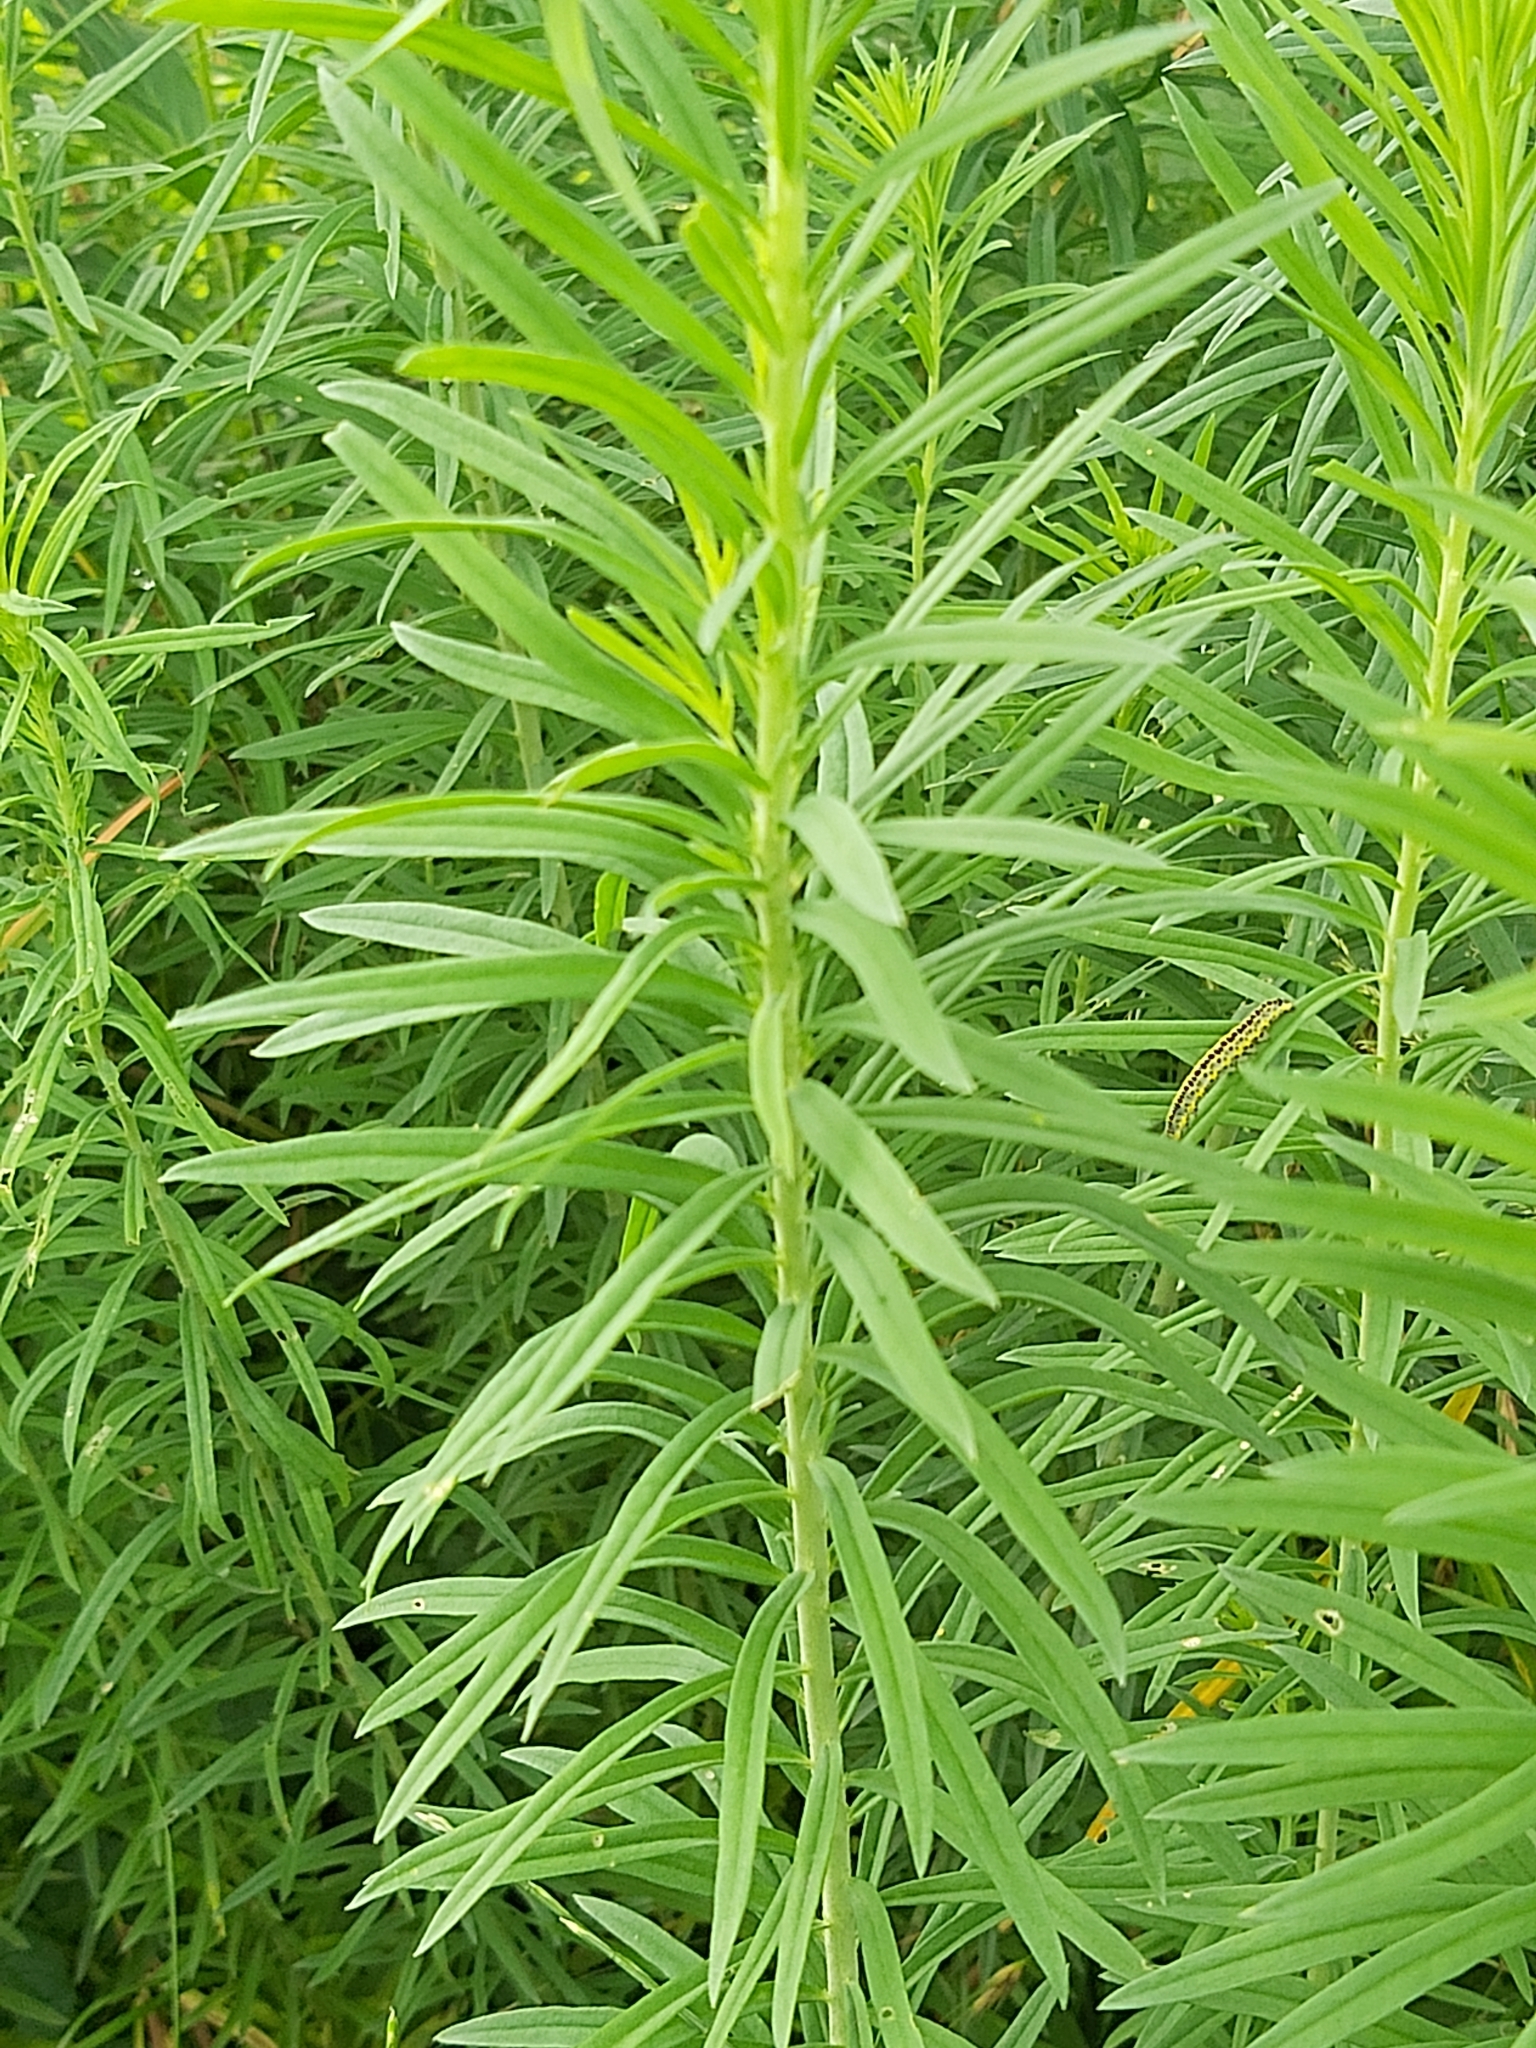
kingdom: Plantae
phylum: Tracheophyta
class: Magnoliopsida
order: Lamiales
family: Plantaginaceae
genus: Linaria
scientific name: Linaria vulgaris
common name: Butter and eggs
